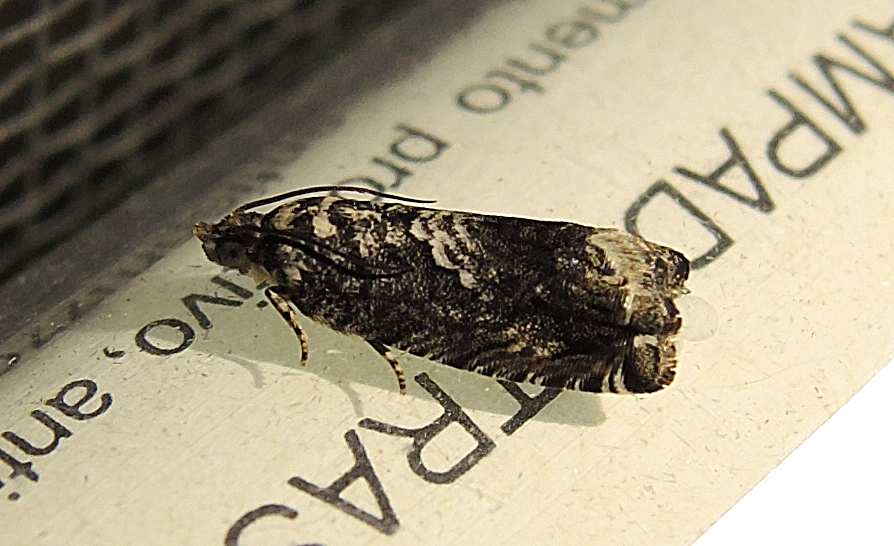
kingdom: Animalia
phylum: Arthropoda
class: Insecta
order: Lepidoptera
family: Tortricidae
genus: Cydia
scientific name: Cydia fagiglandana
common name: Large beech piercer
